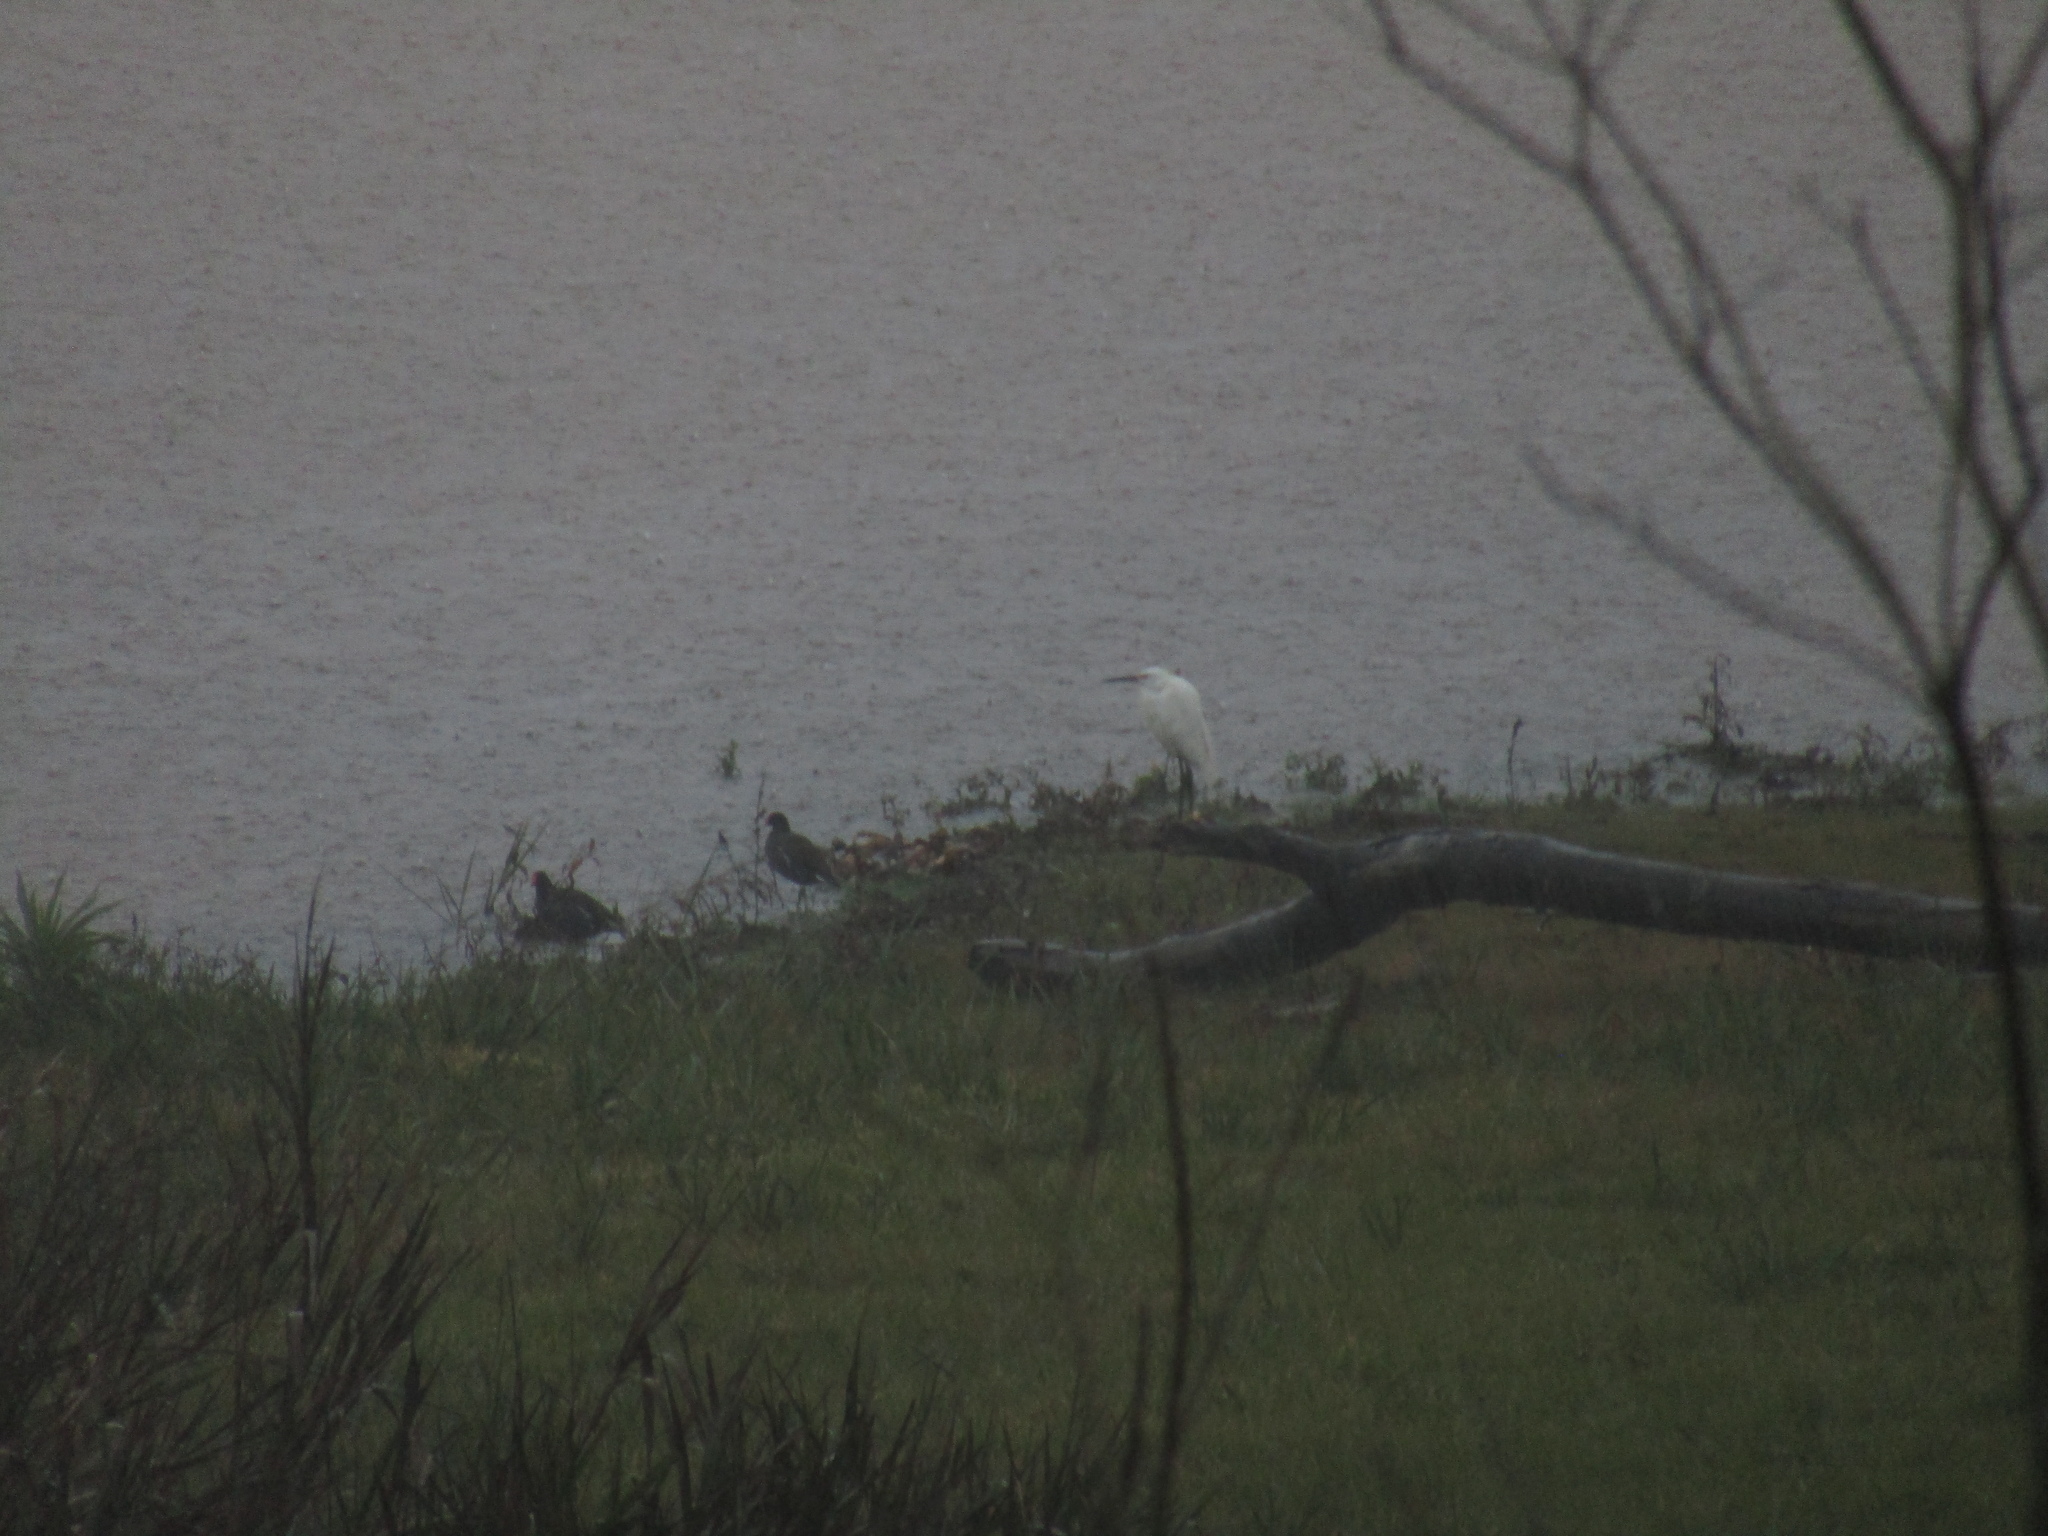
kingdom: Animalia
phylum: Chordata
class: Aves
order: Gruiformes
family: Rallidae
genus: Gallinula
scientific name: Gallinula chloropus
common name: Common moorhen
